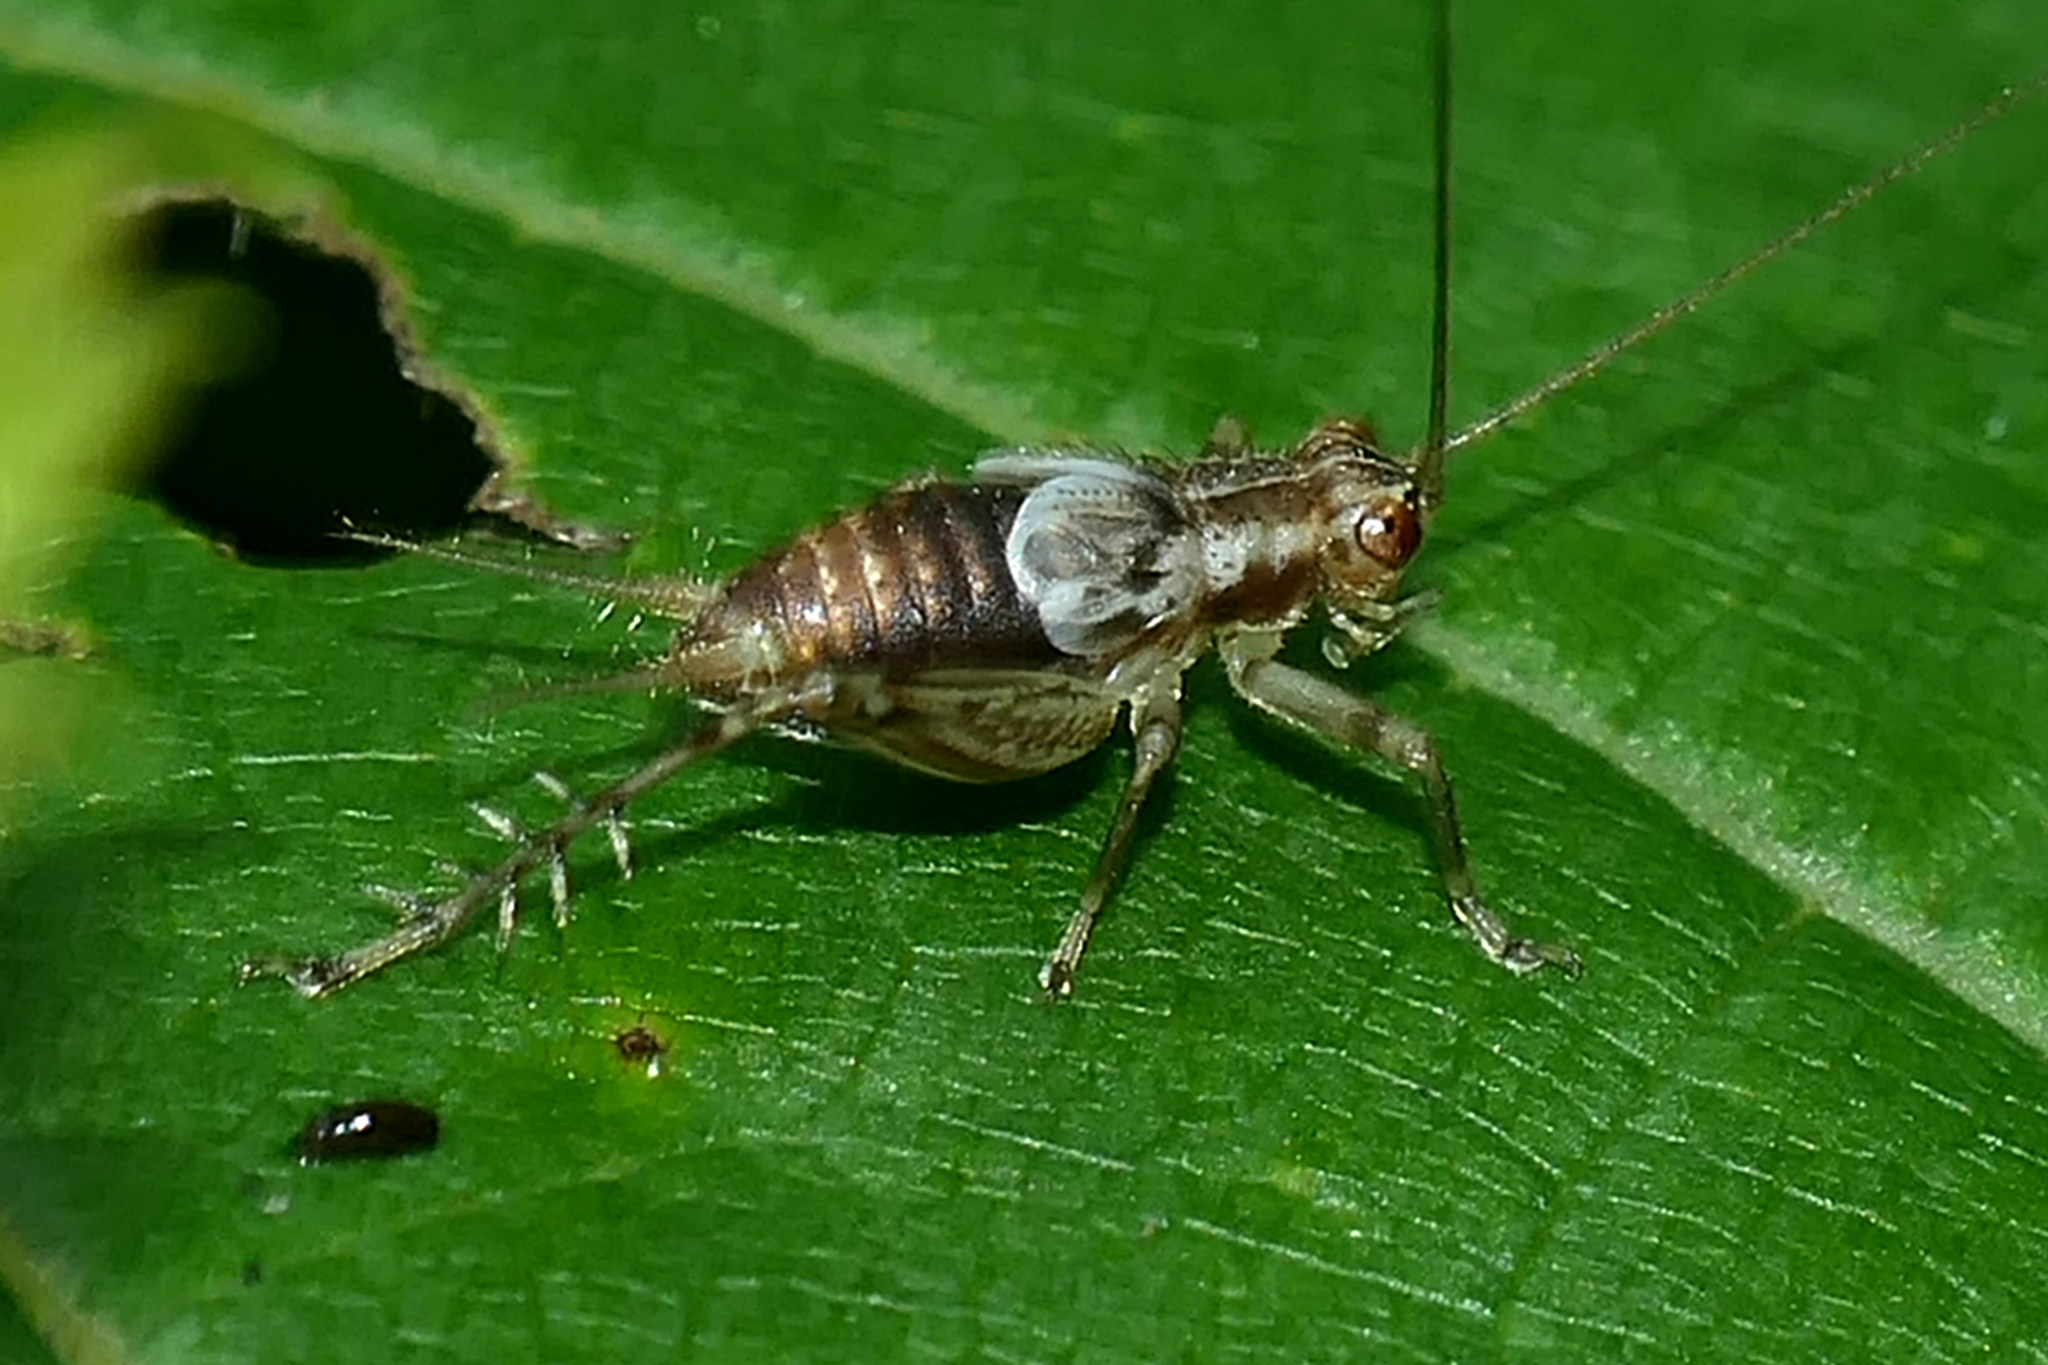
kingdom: Animalia
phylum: Arthropoda
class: Insecta
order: Orthoptera
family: Trigonidiidae
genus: Anaxipha
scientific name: Anaxipha exigua
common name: Say's bush cricket
